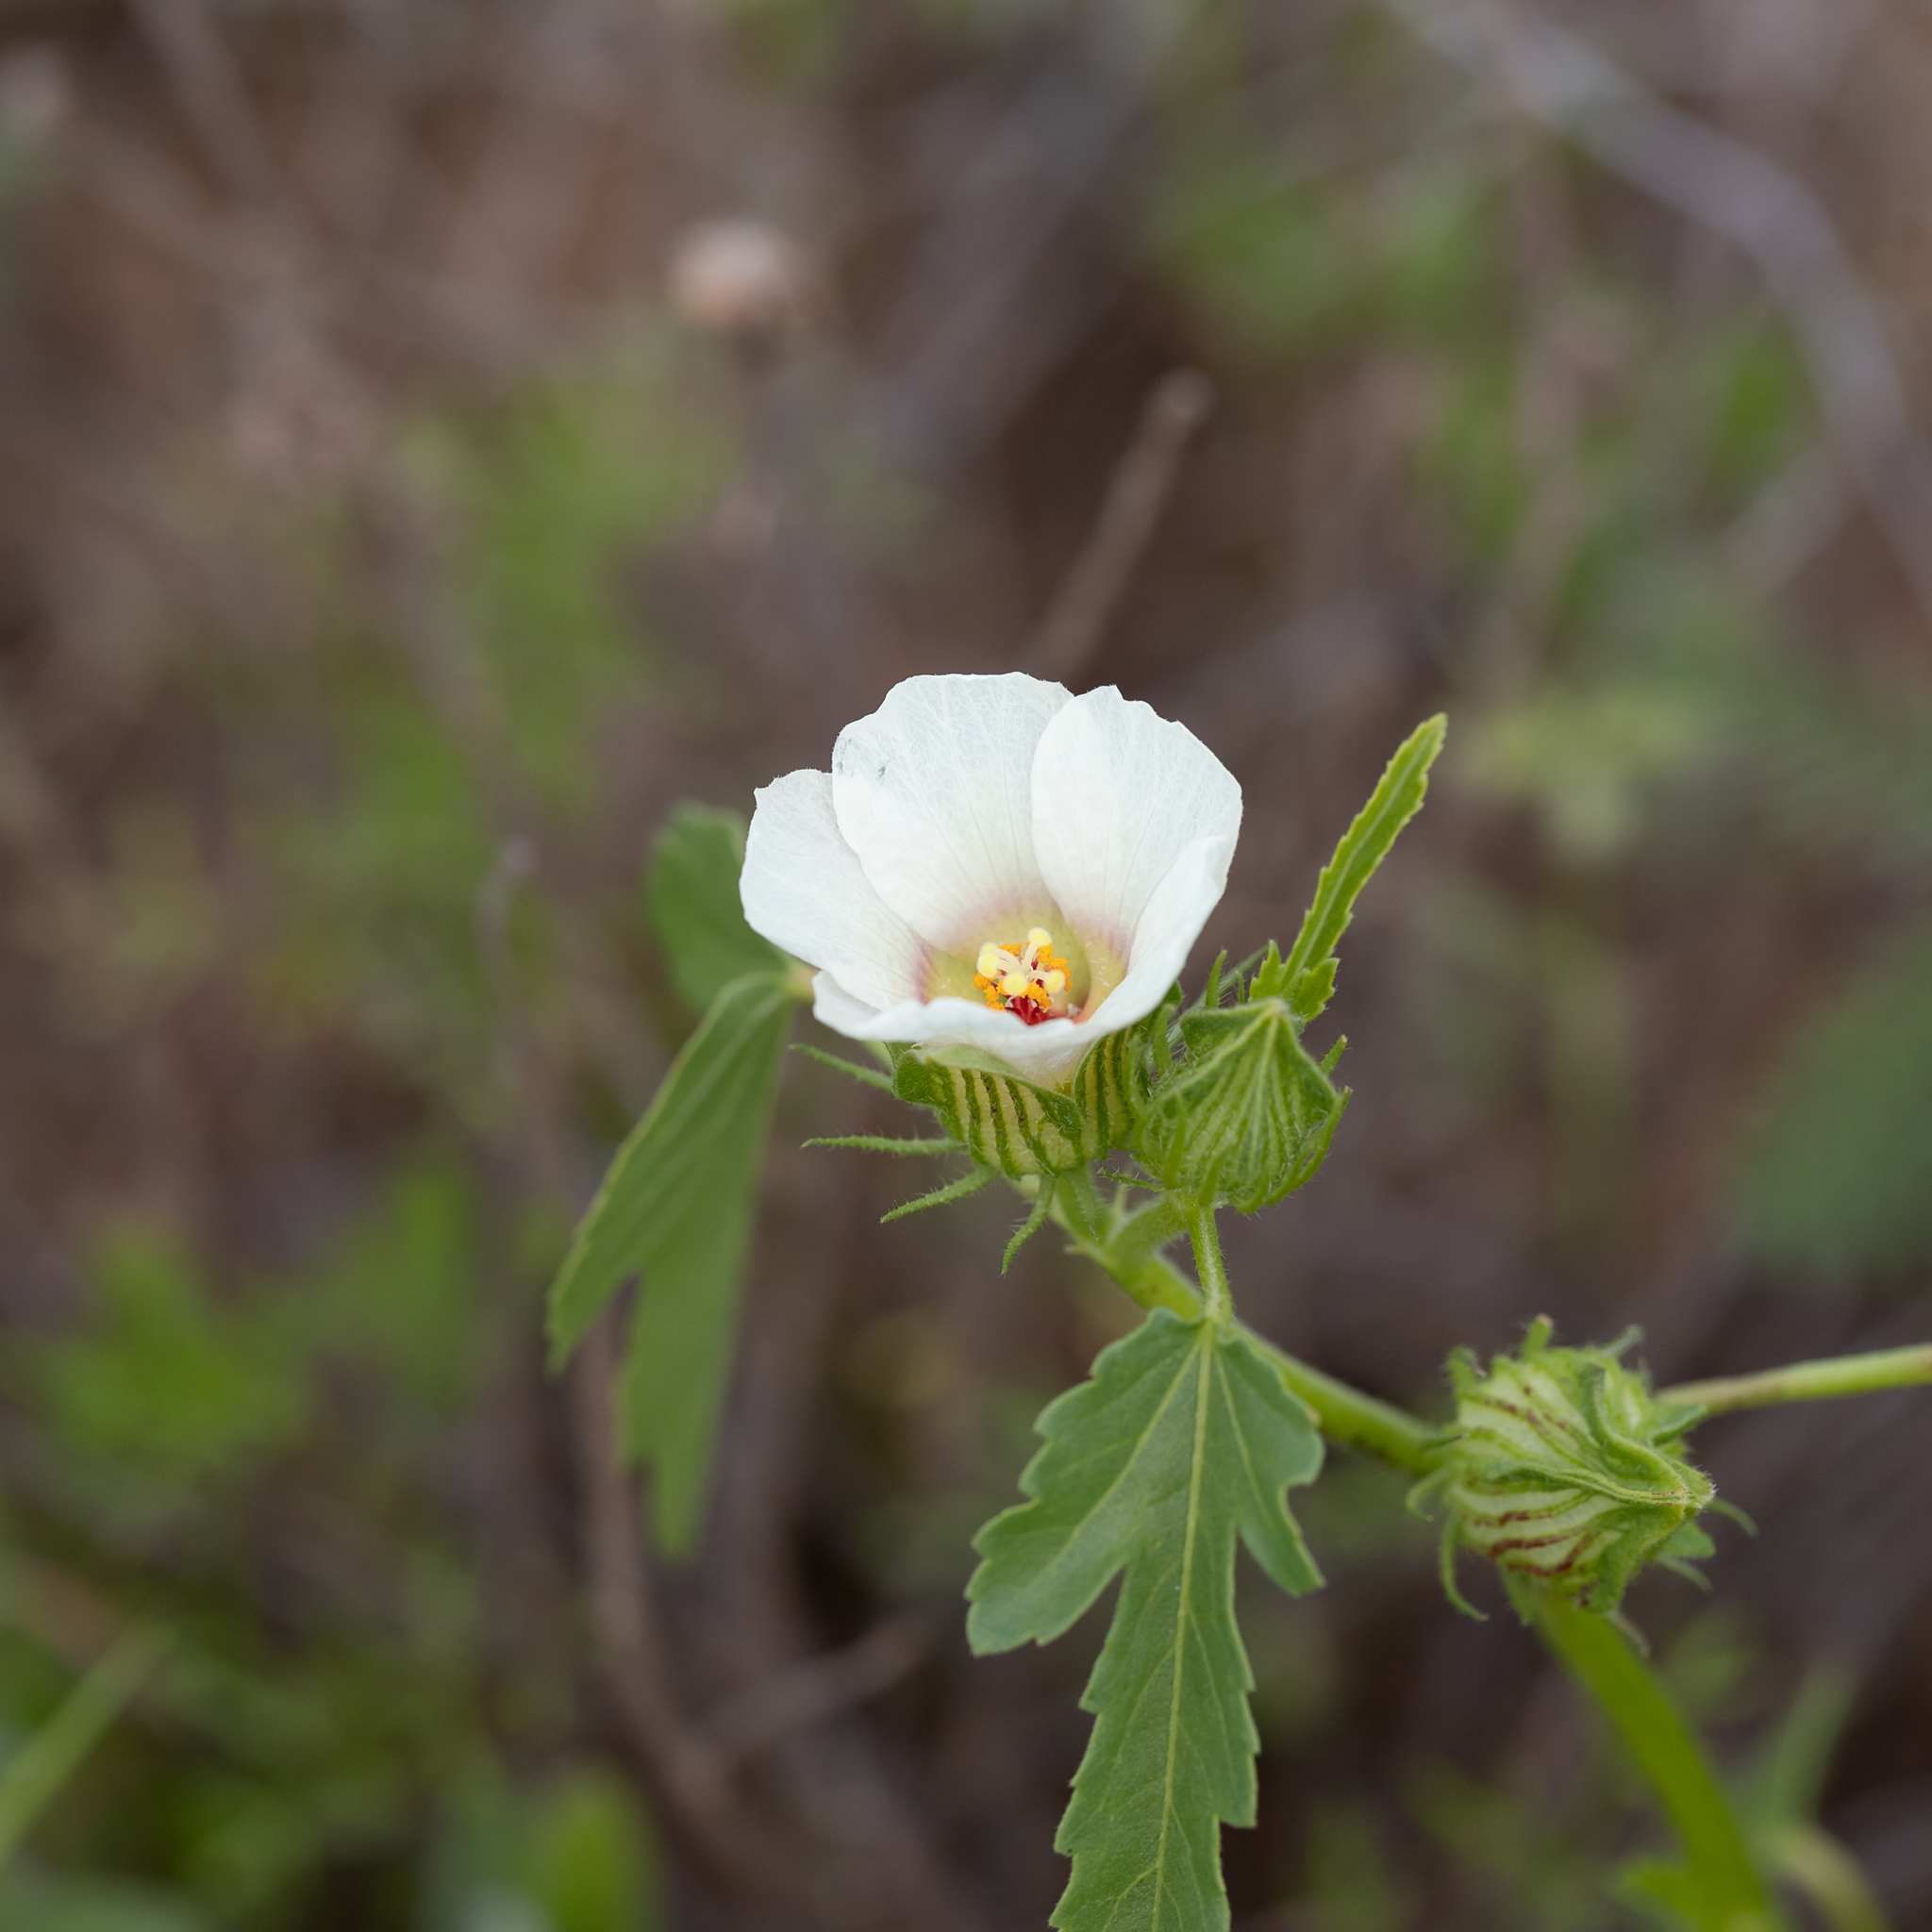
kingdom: Plantae
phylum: Tracheophyta
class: Magnoliopsida
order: Malvales
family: Malvaceae
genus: Hibiscus
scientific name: Hibiscus verdcourtii
